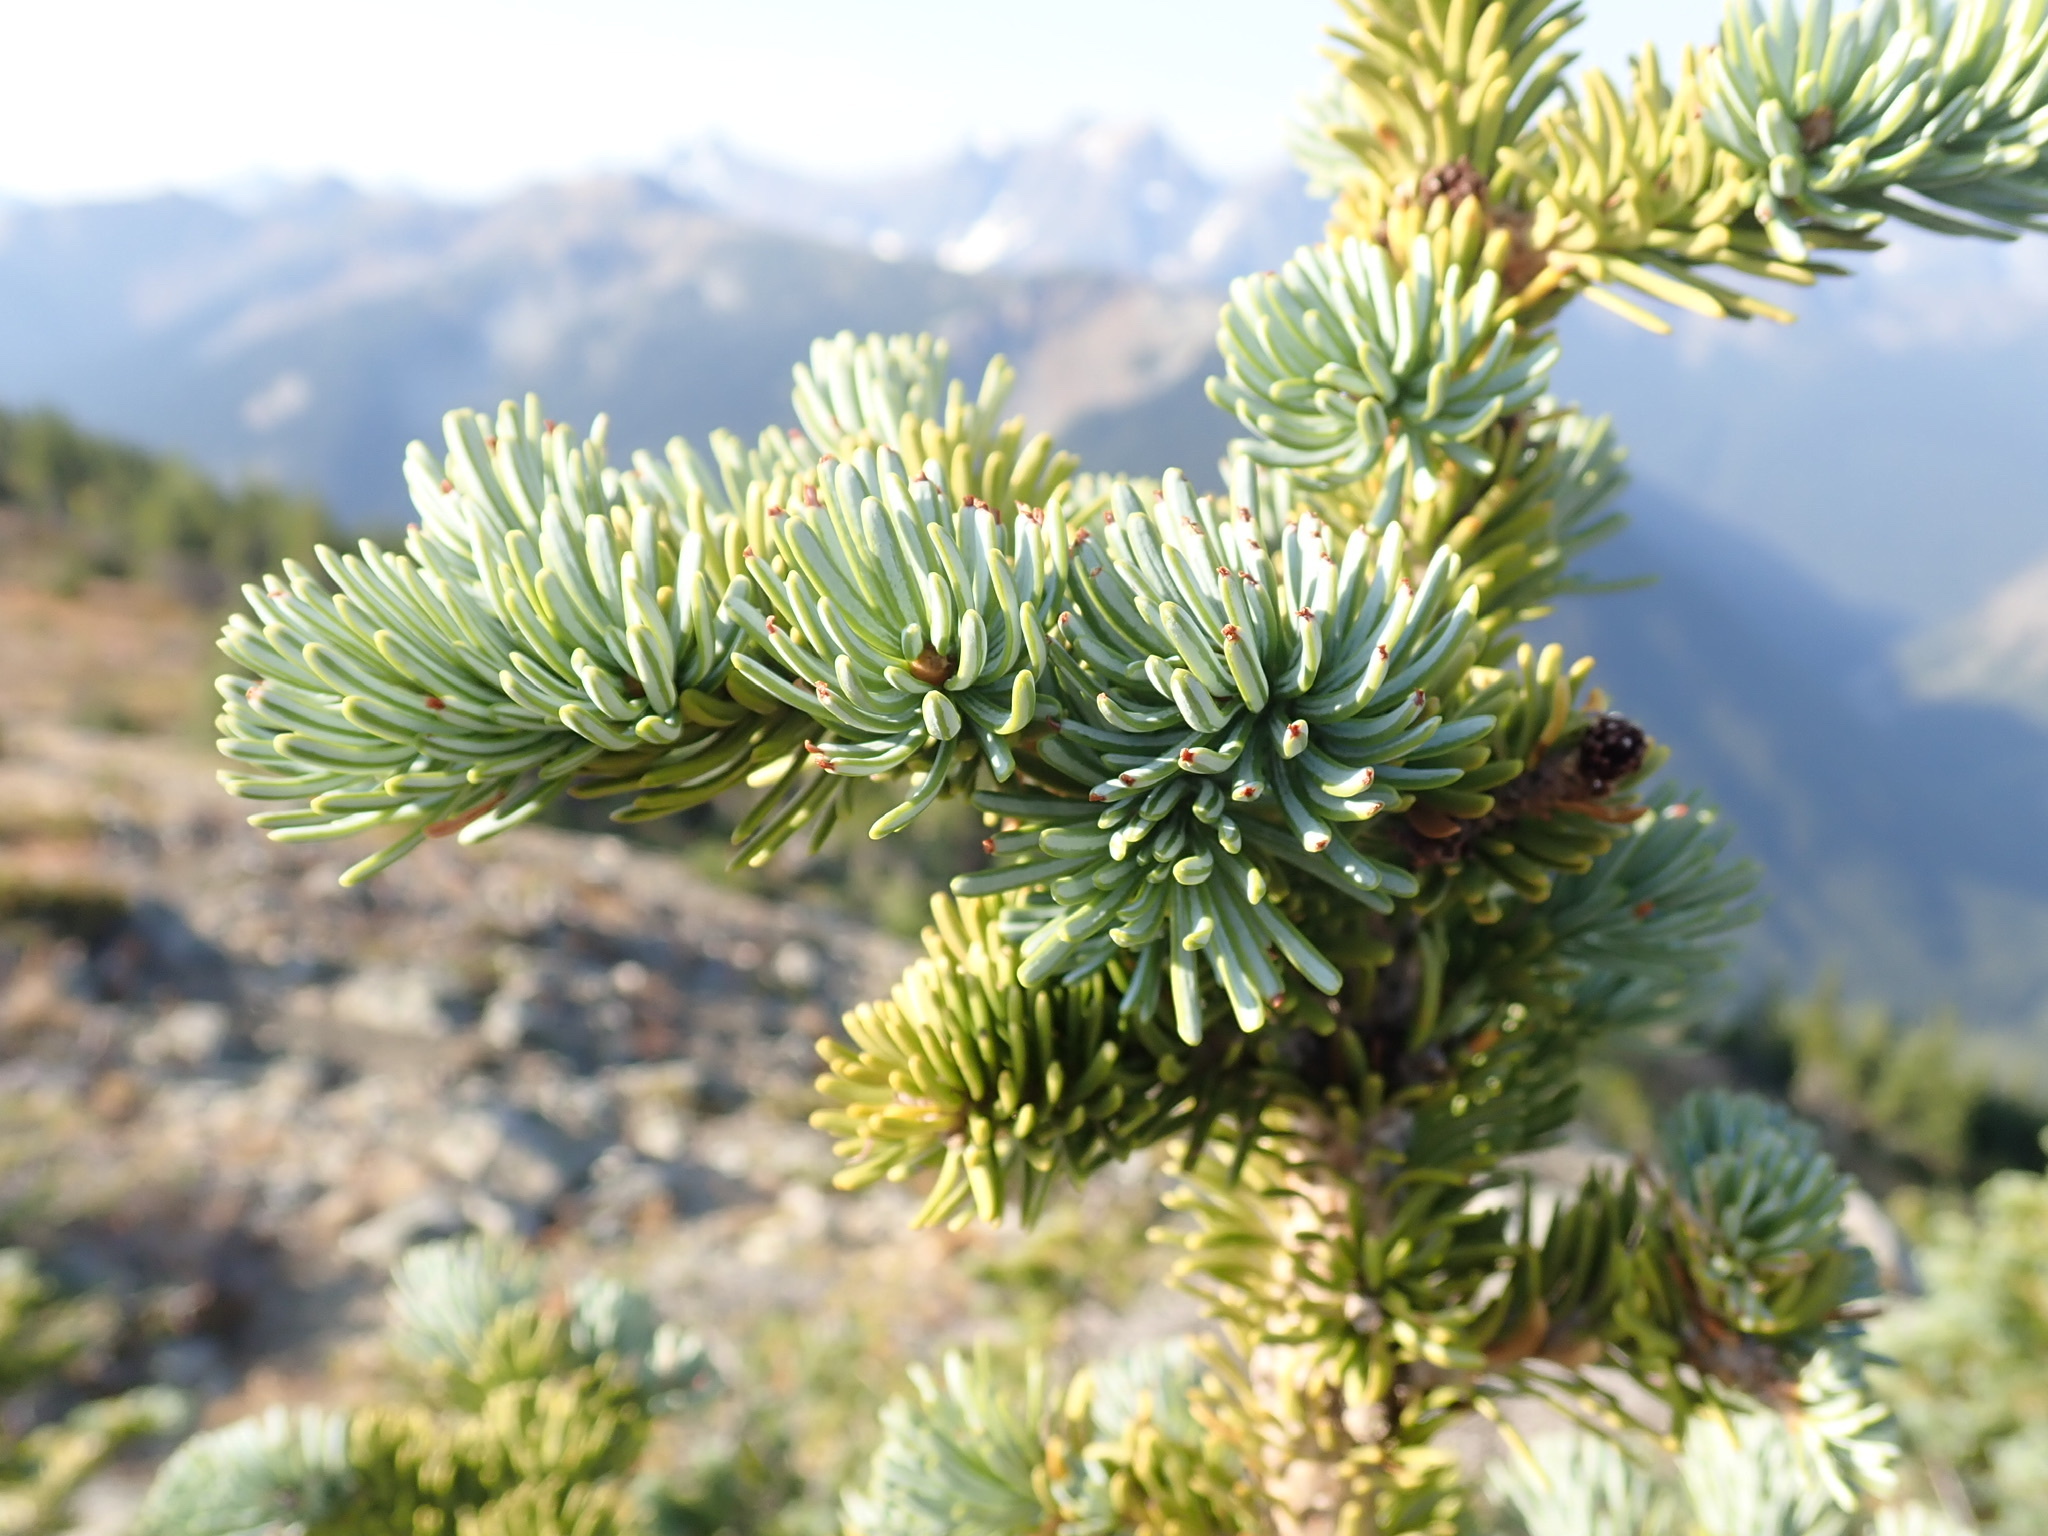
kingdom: Plantae
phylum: Tracheophyta
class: Pinopsida
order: Pinales
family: Pinaceae
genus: Abies
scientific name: Abies lasiocarpa
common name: Subalpine fir
